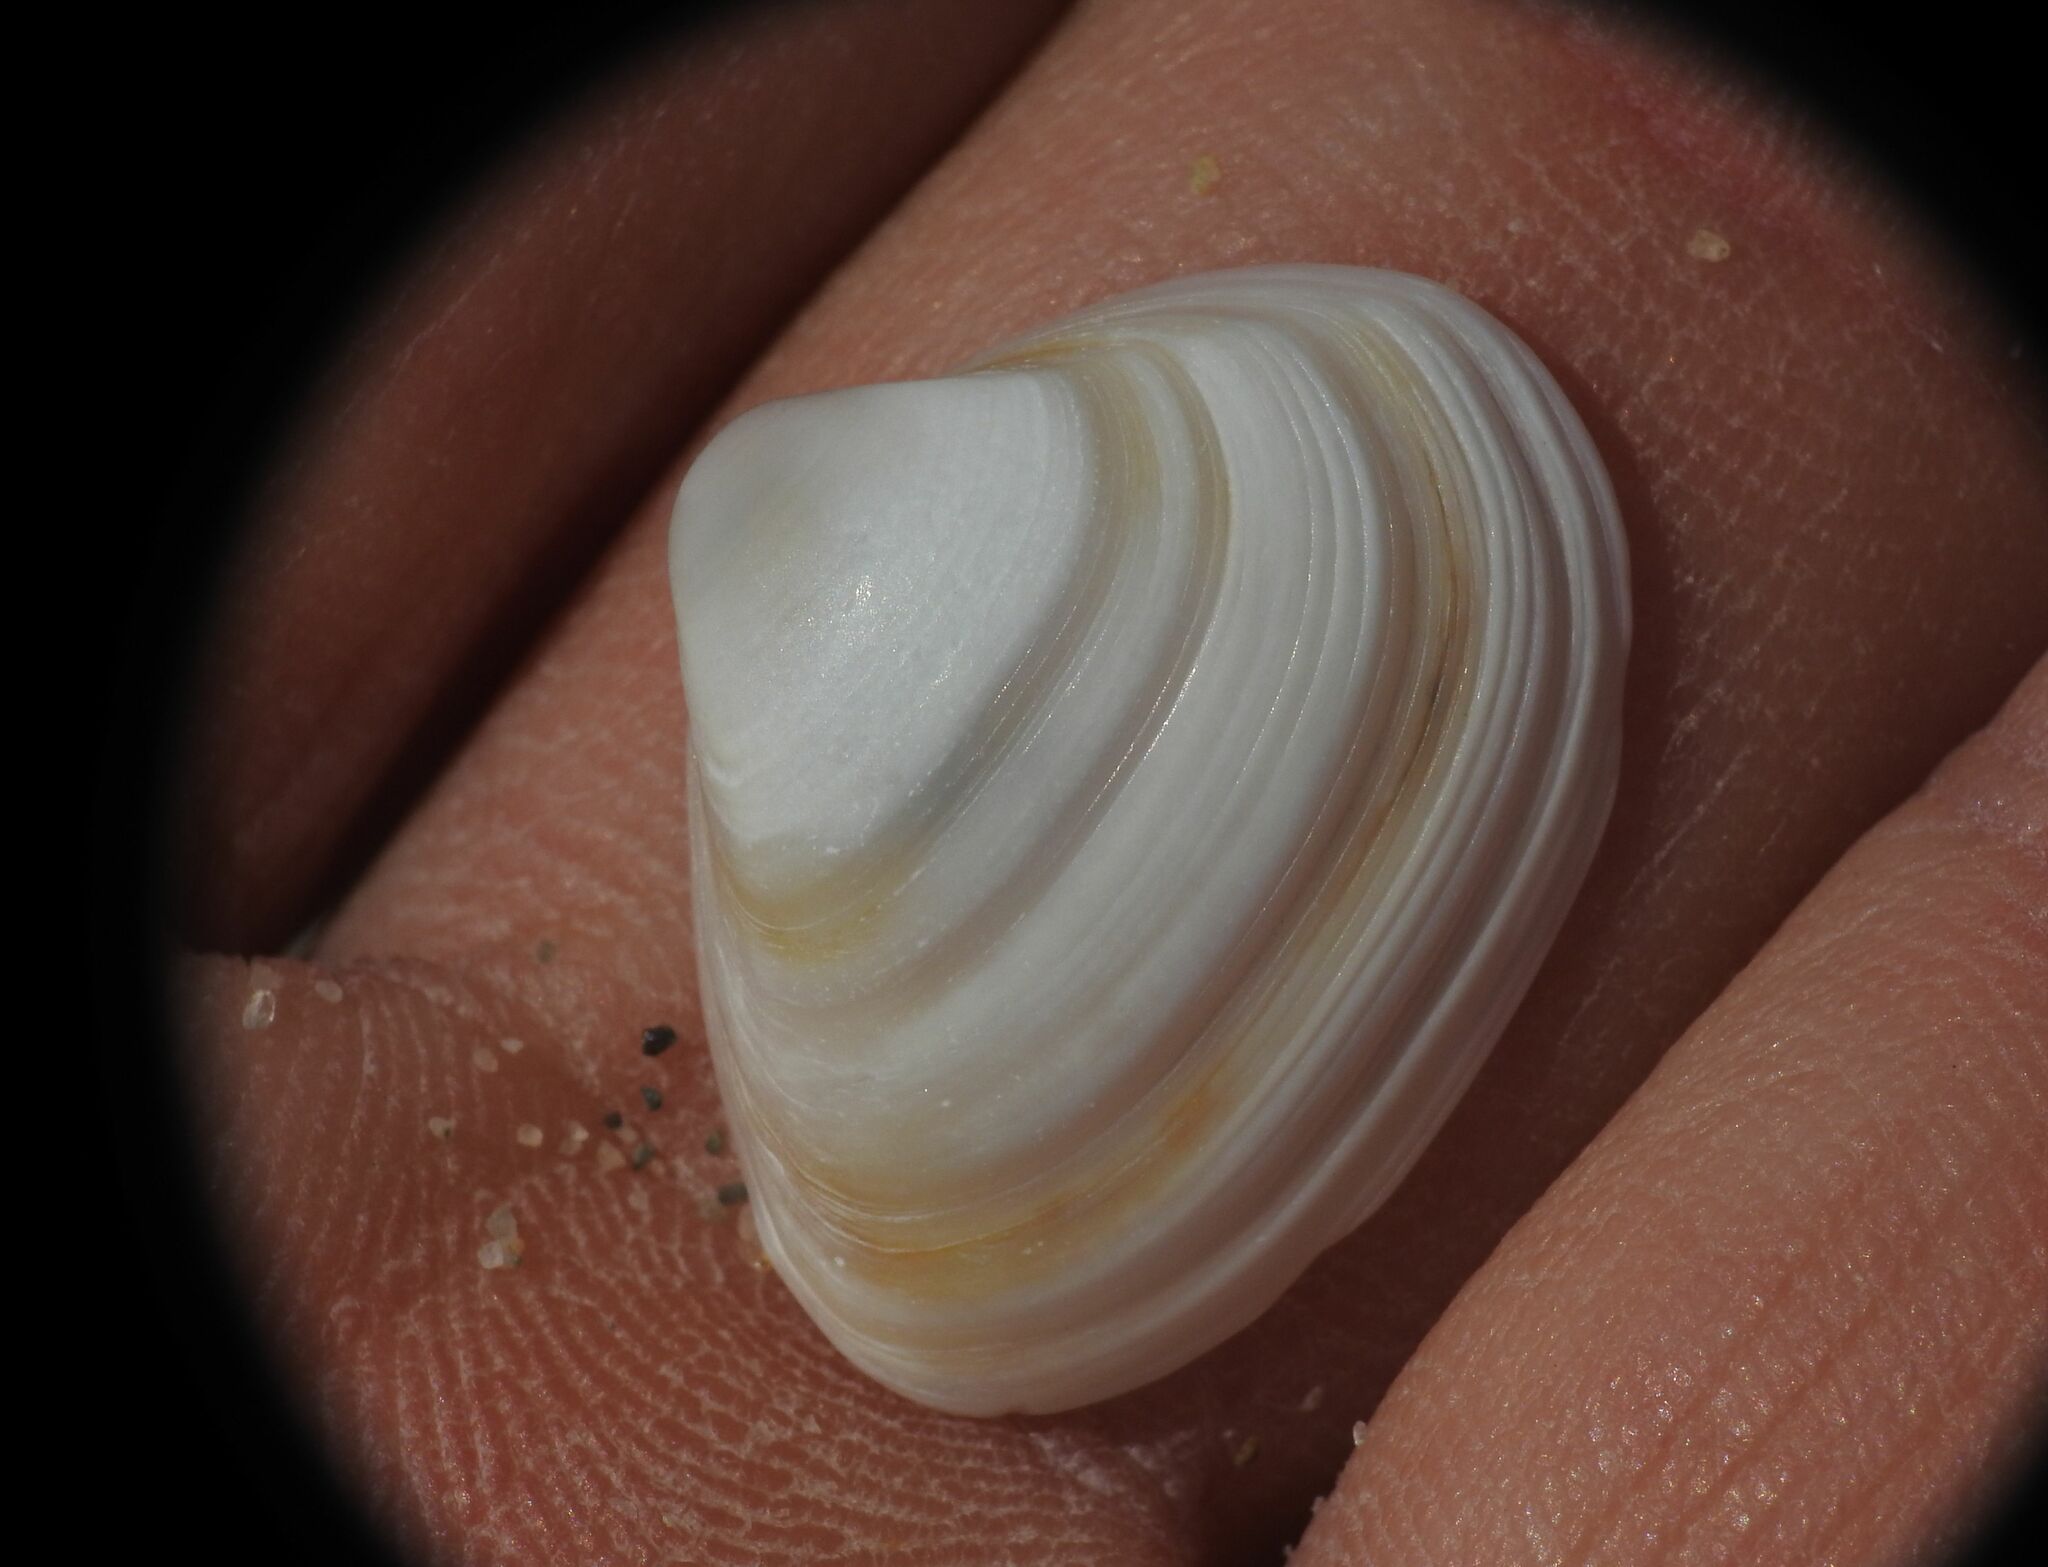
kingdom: Animalia
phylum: Mollusca
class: Bivalvia
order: Venerida
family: Mactridae
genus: Spisula
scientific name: Spisula subtruncata
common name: Cut trough shell
